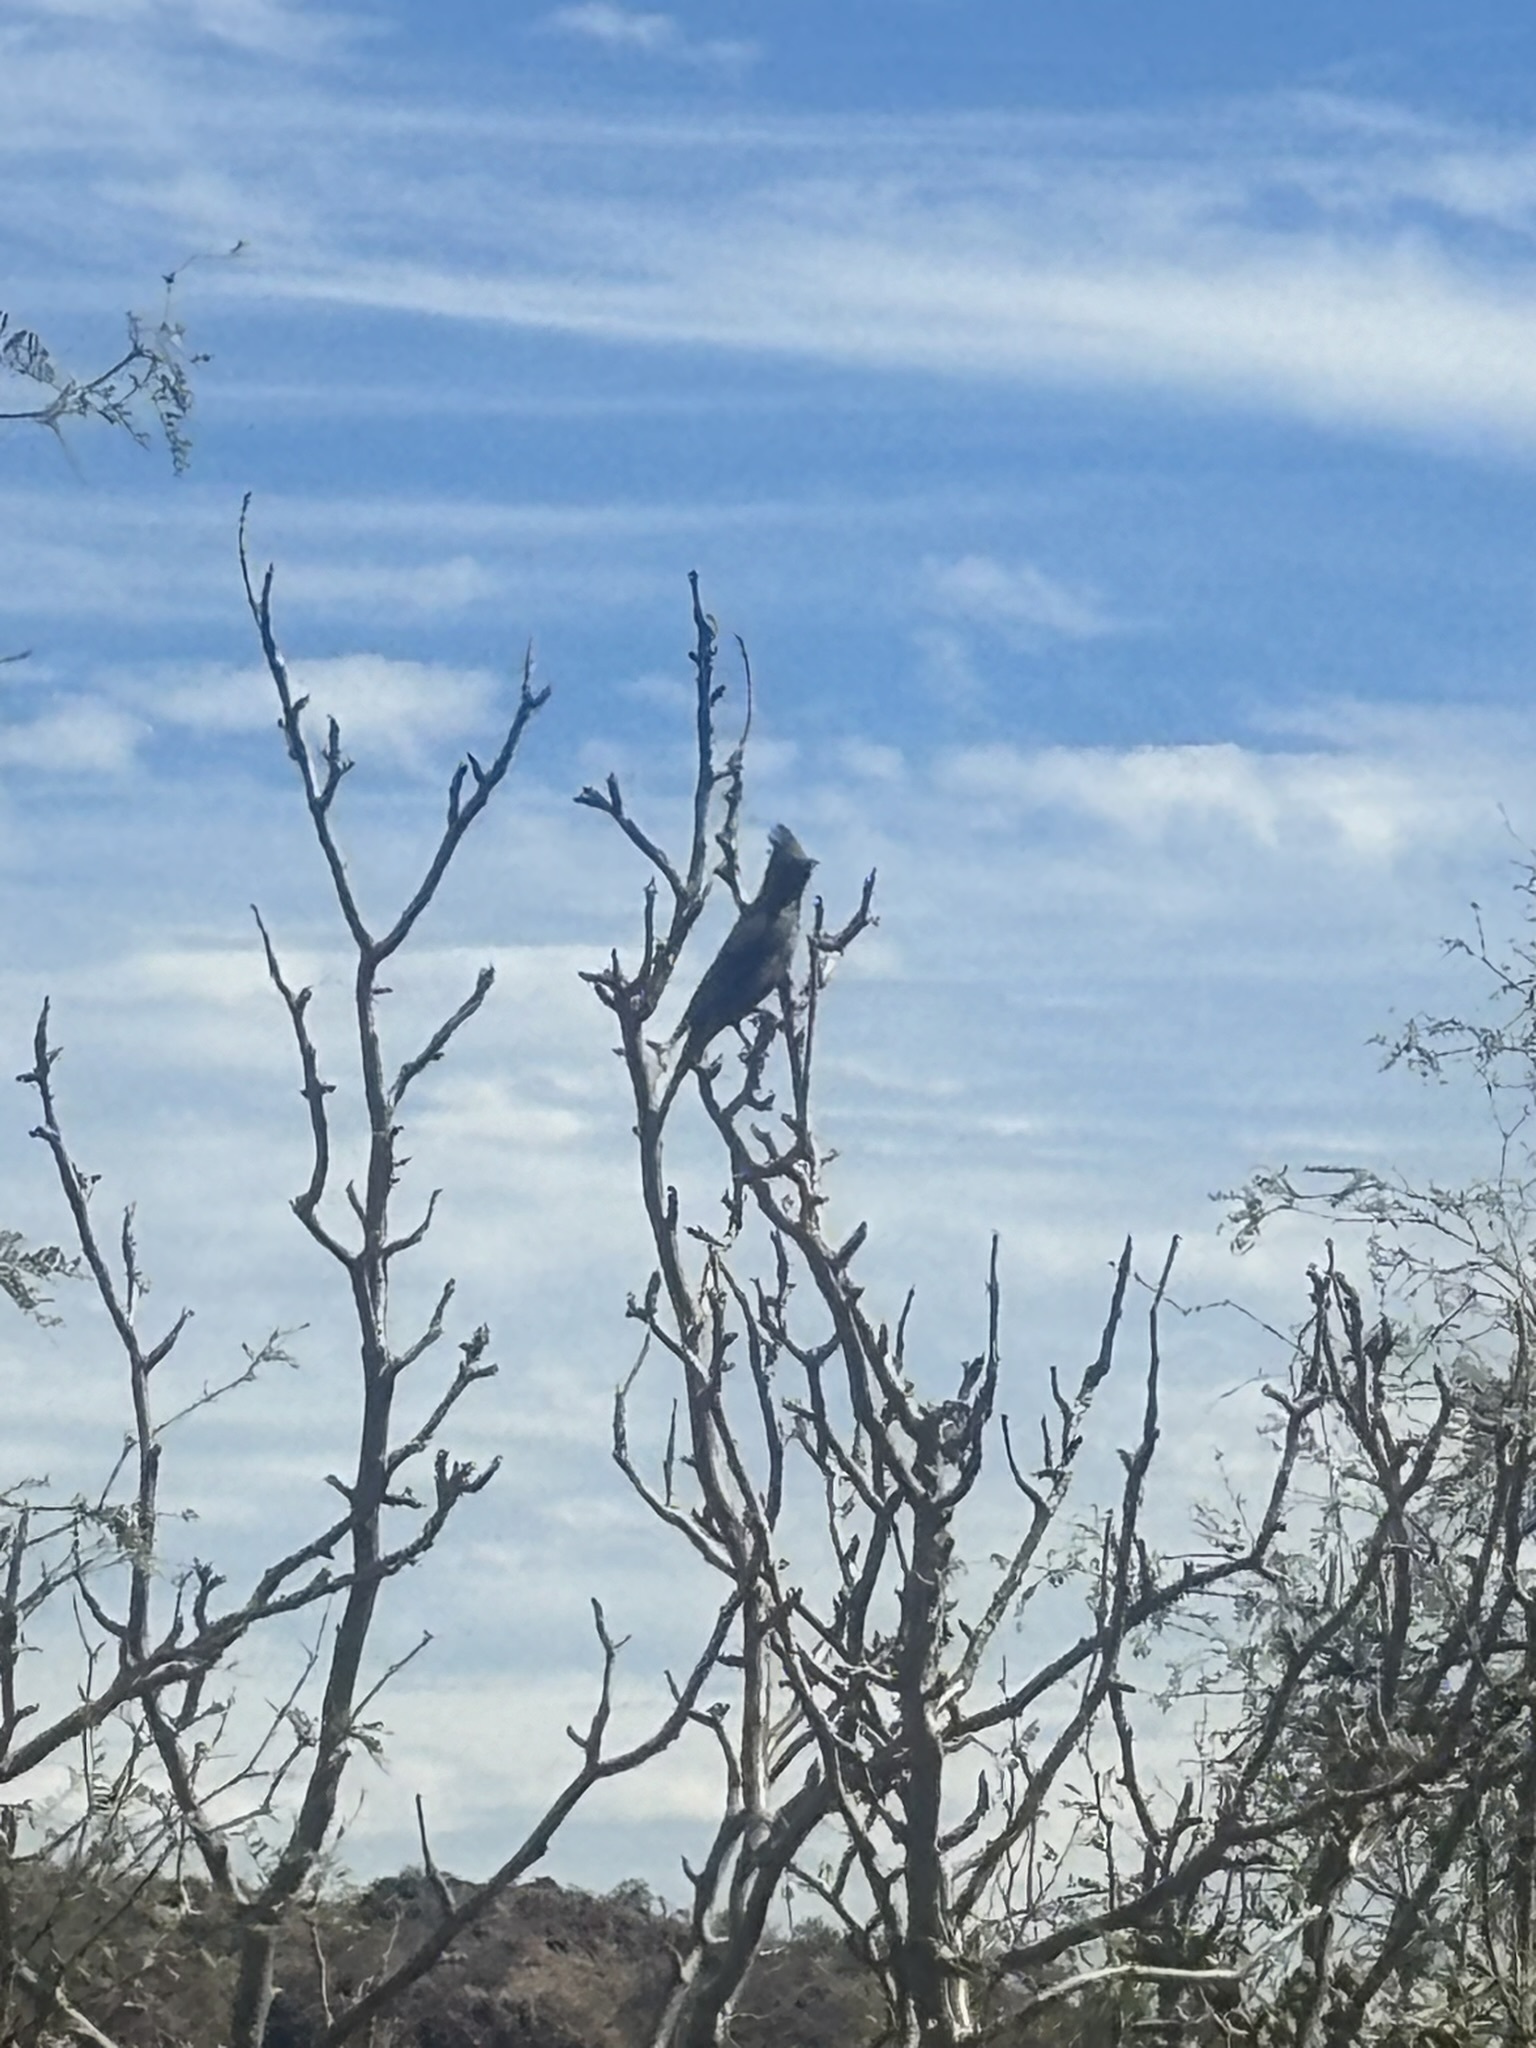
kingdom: Animalia
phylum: Chordata
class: Aves
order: Passeriformes
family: Ptilogonatidae
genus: Phainopepla
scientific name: Phainopepla nitens
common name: Phainopepla
